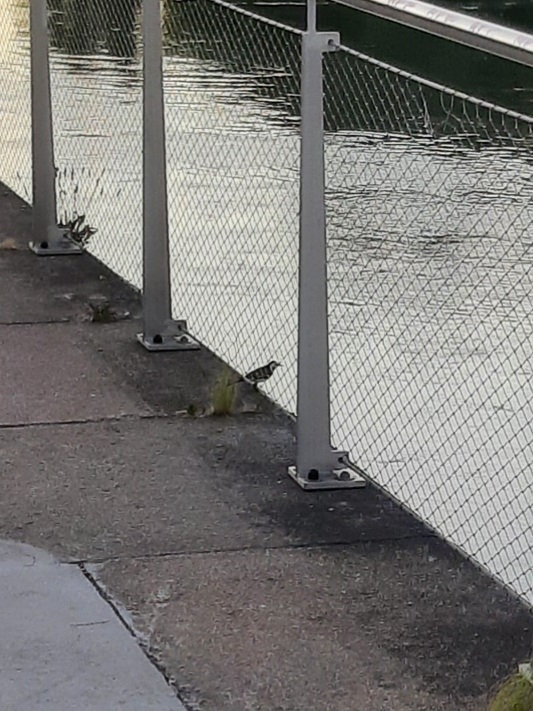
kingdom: Animalia
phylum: Chordata
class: Aves
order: Passeriformes
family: Motacillidae
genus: Motacilla
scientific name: Motacilla alba
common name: White wagtail
